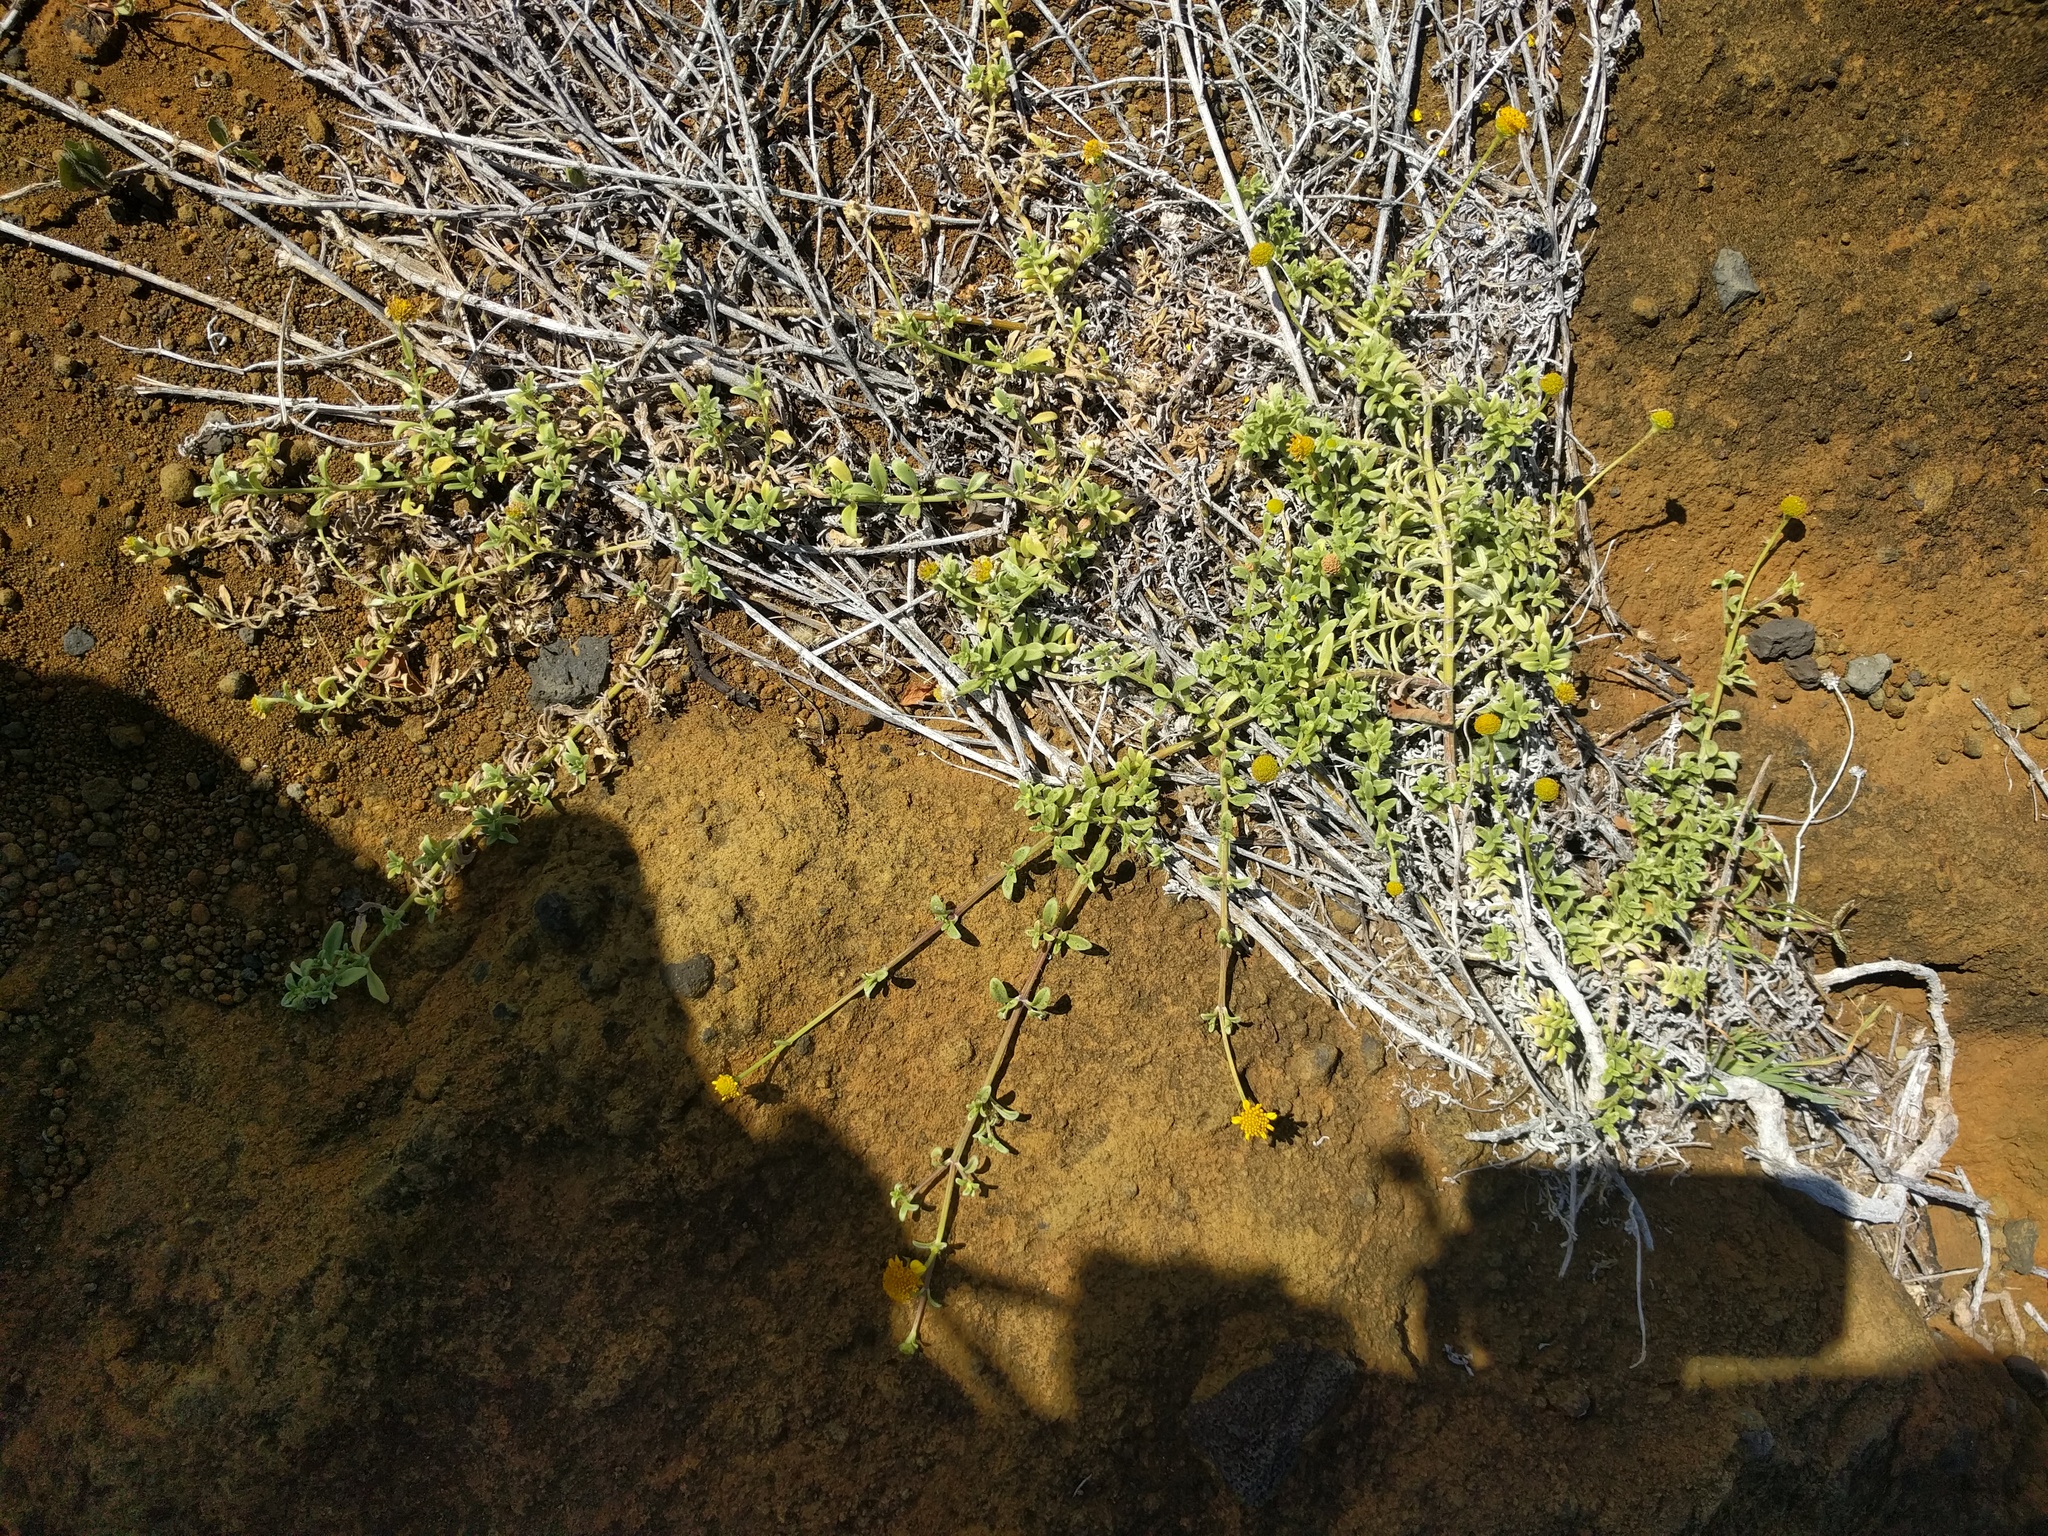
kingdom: Plantae
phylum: Tracheophyta
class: Magnoliopsida
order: Asterales
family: Asteraceae
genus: Lipochaeta
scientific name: Lipochaeta integrifolia
